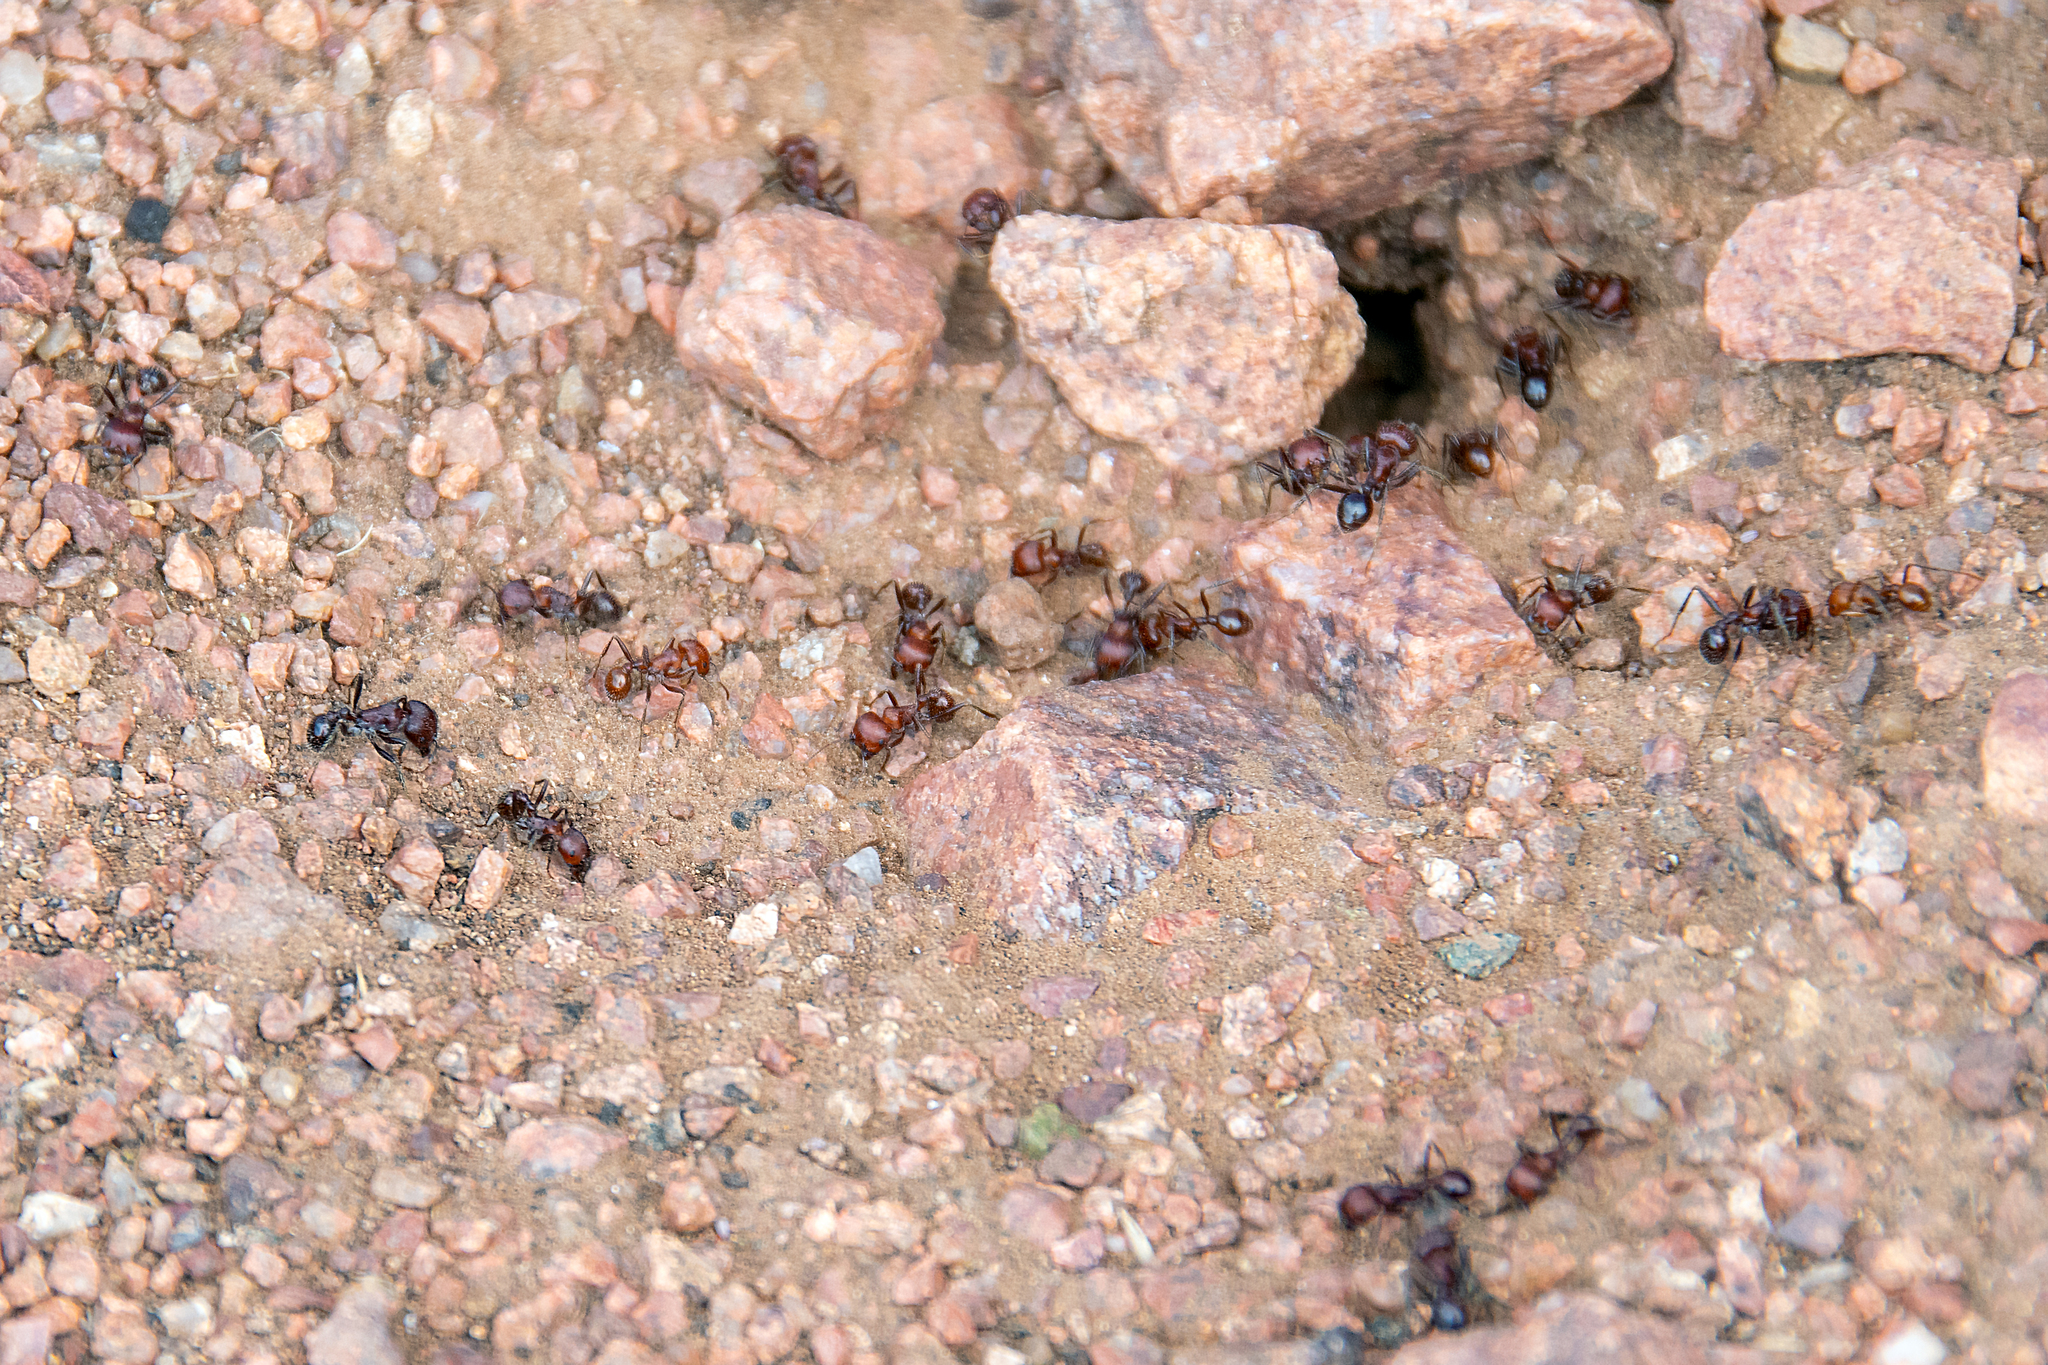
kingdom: Animalia
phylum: Arthropoda
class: Insecta
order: Hymenoptera
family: Formicidae
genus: Pogonomyrmex
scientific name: Pogonomyrmex
